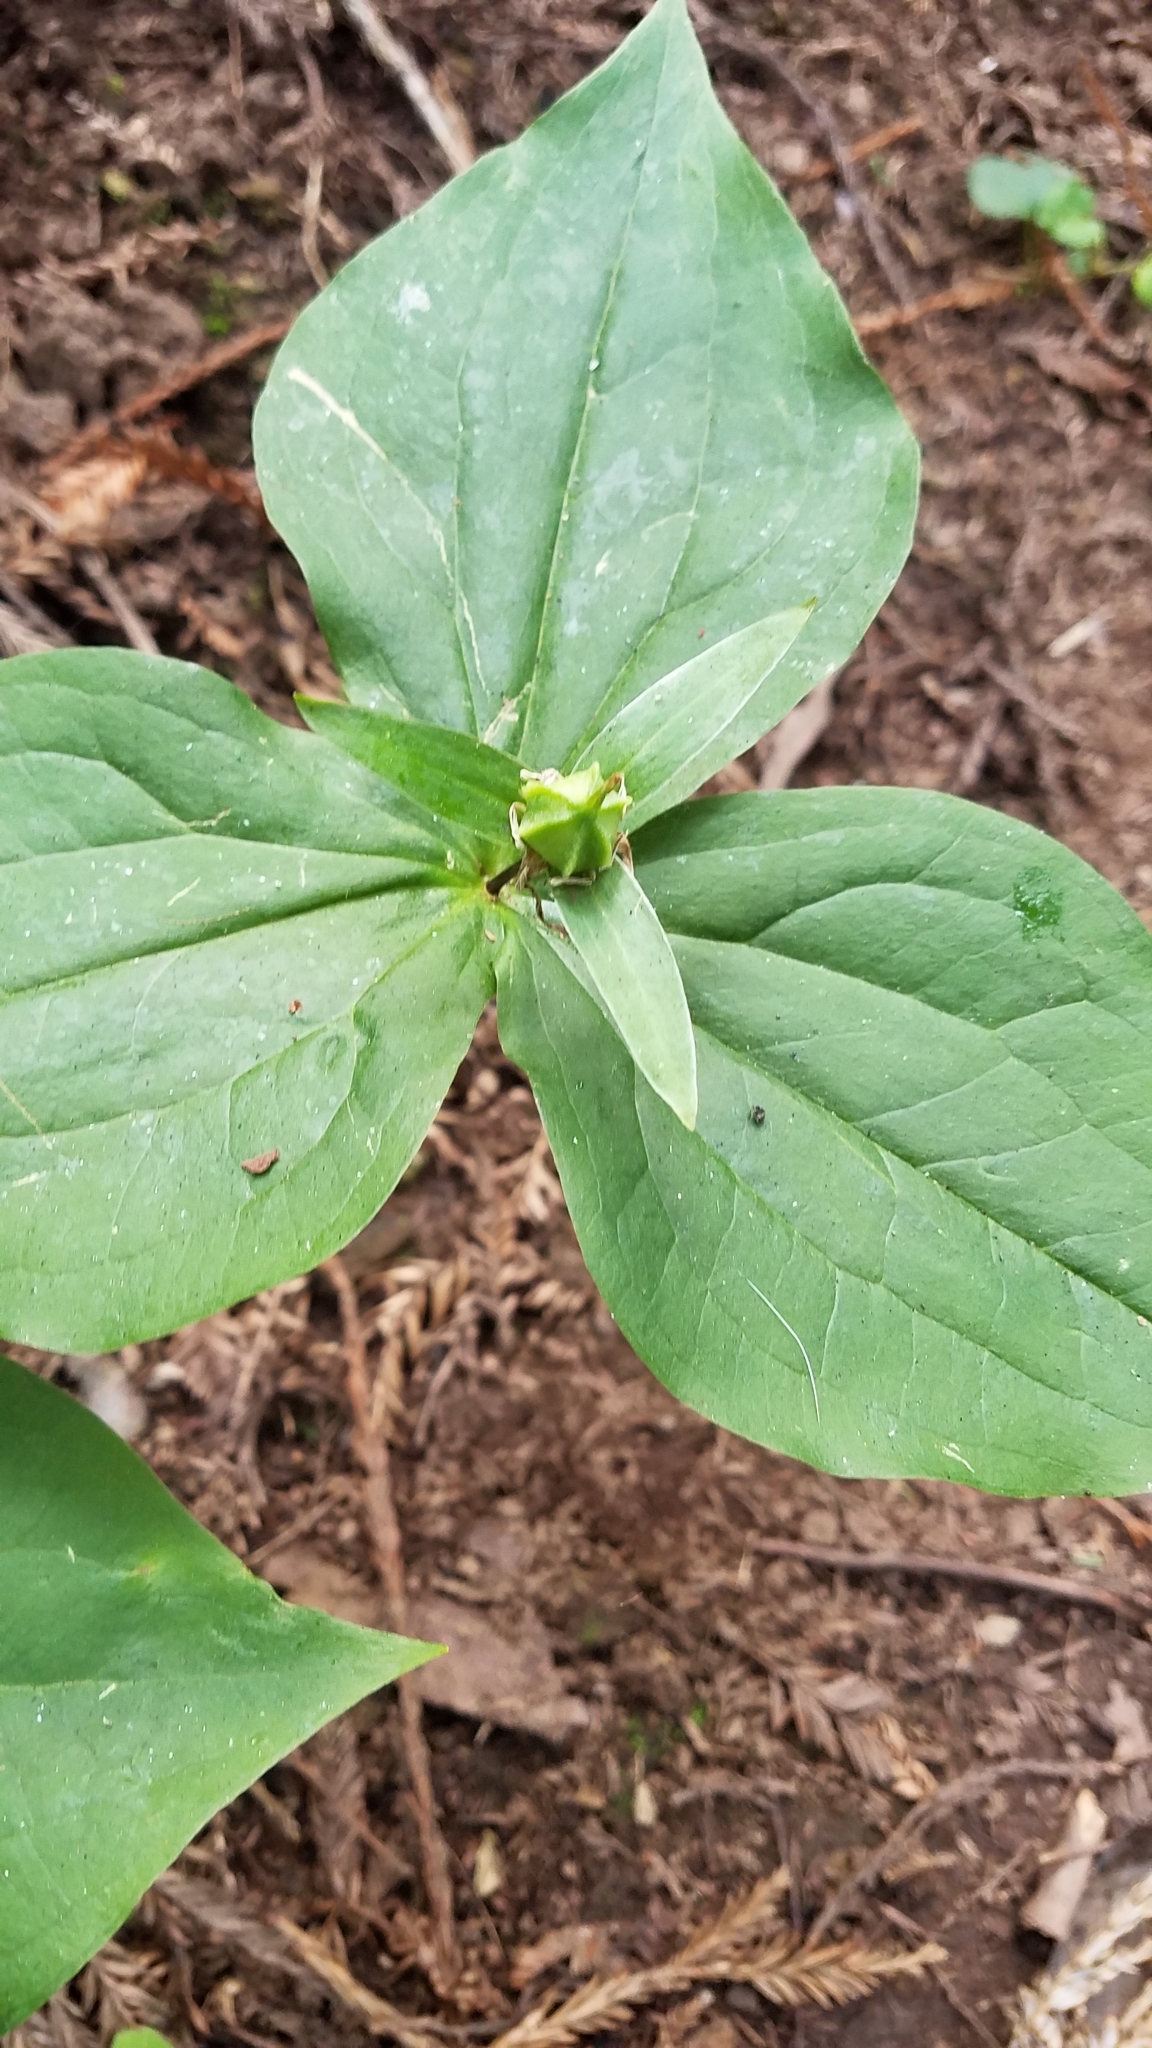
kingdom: Plantae
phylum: Tracheophyta
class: Liliopsida
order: Liliales
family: Melanthiaceae
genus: Trillium
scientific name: Trillium ovatum
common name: Pacific trillium
